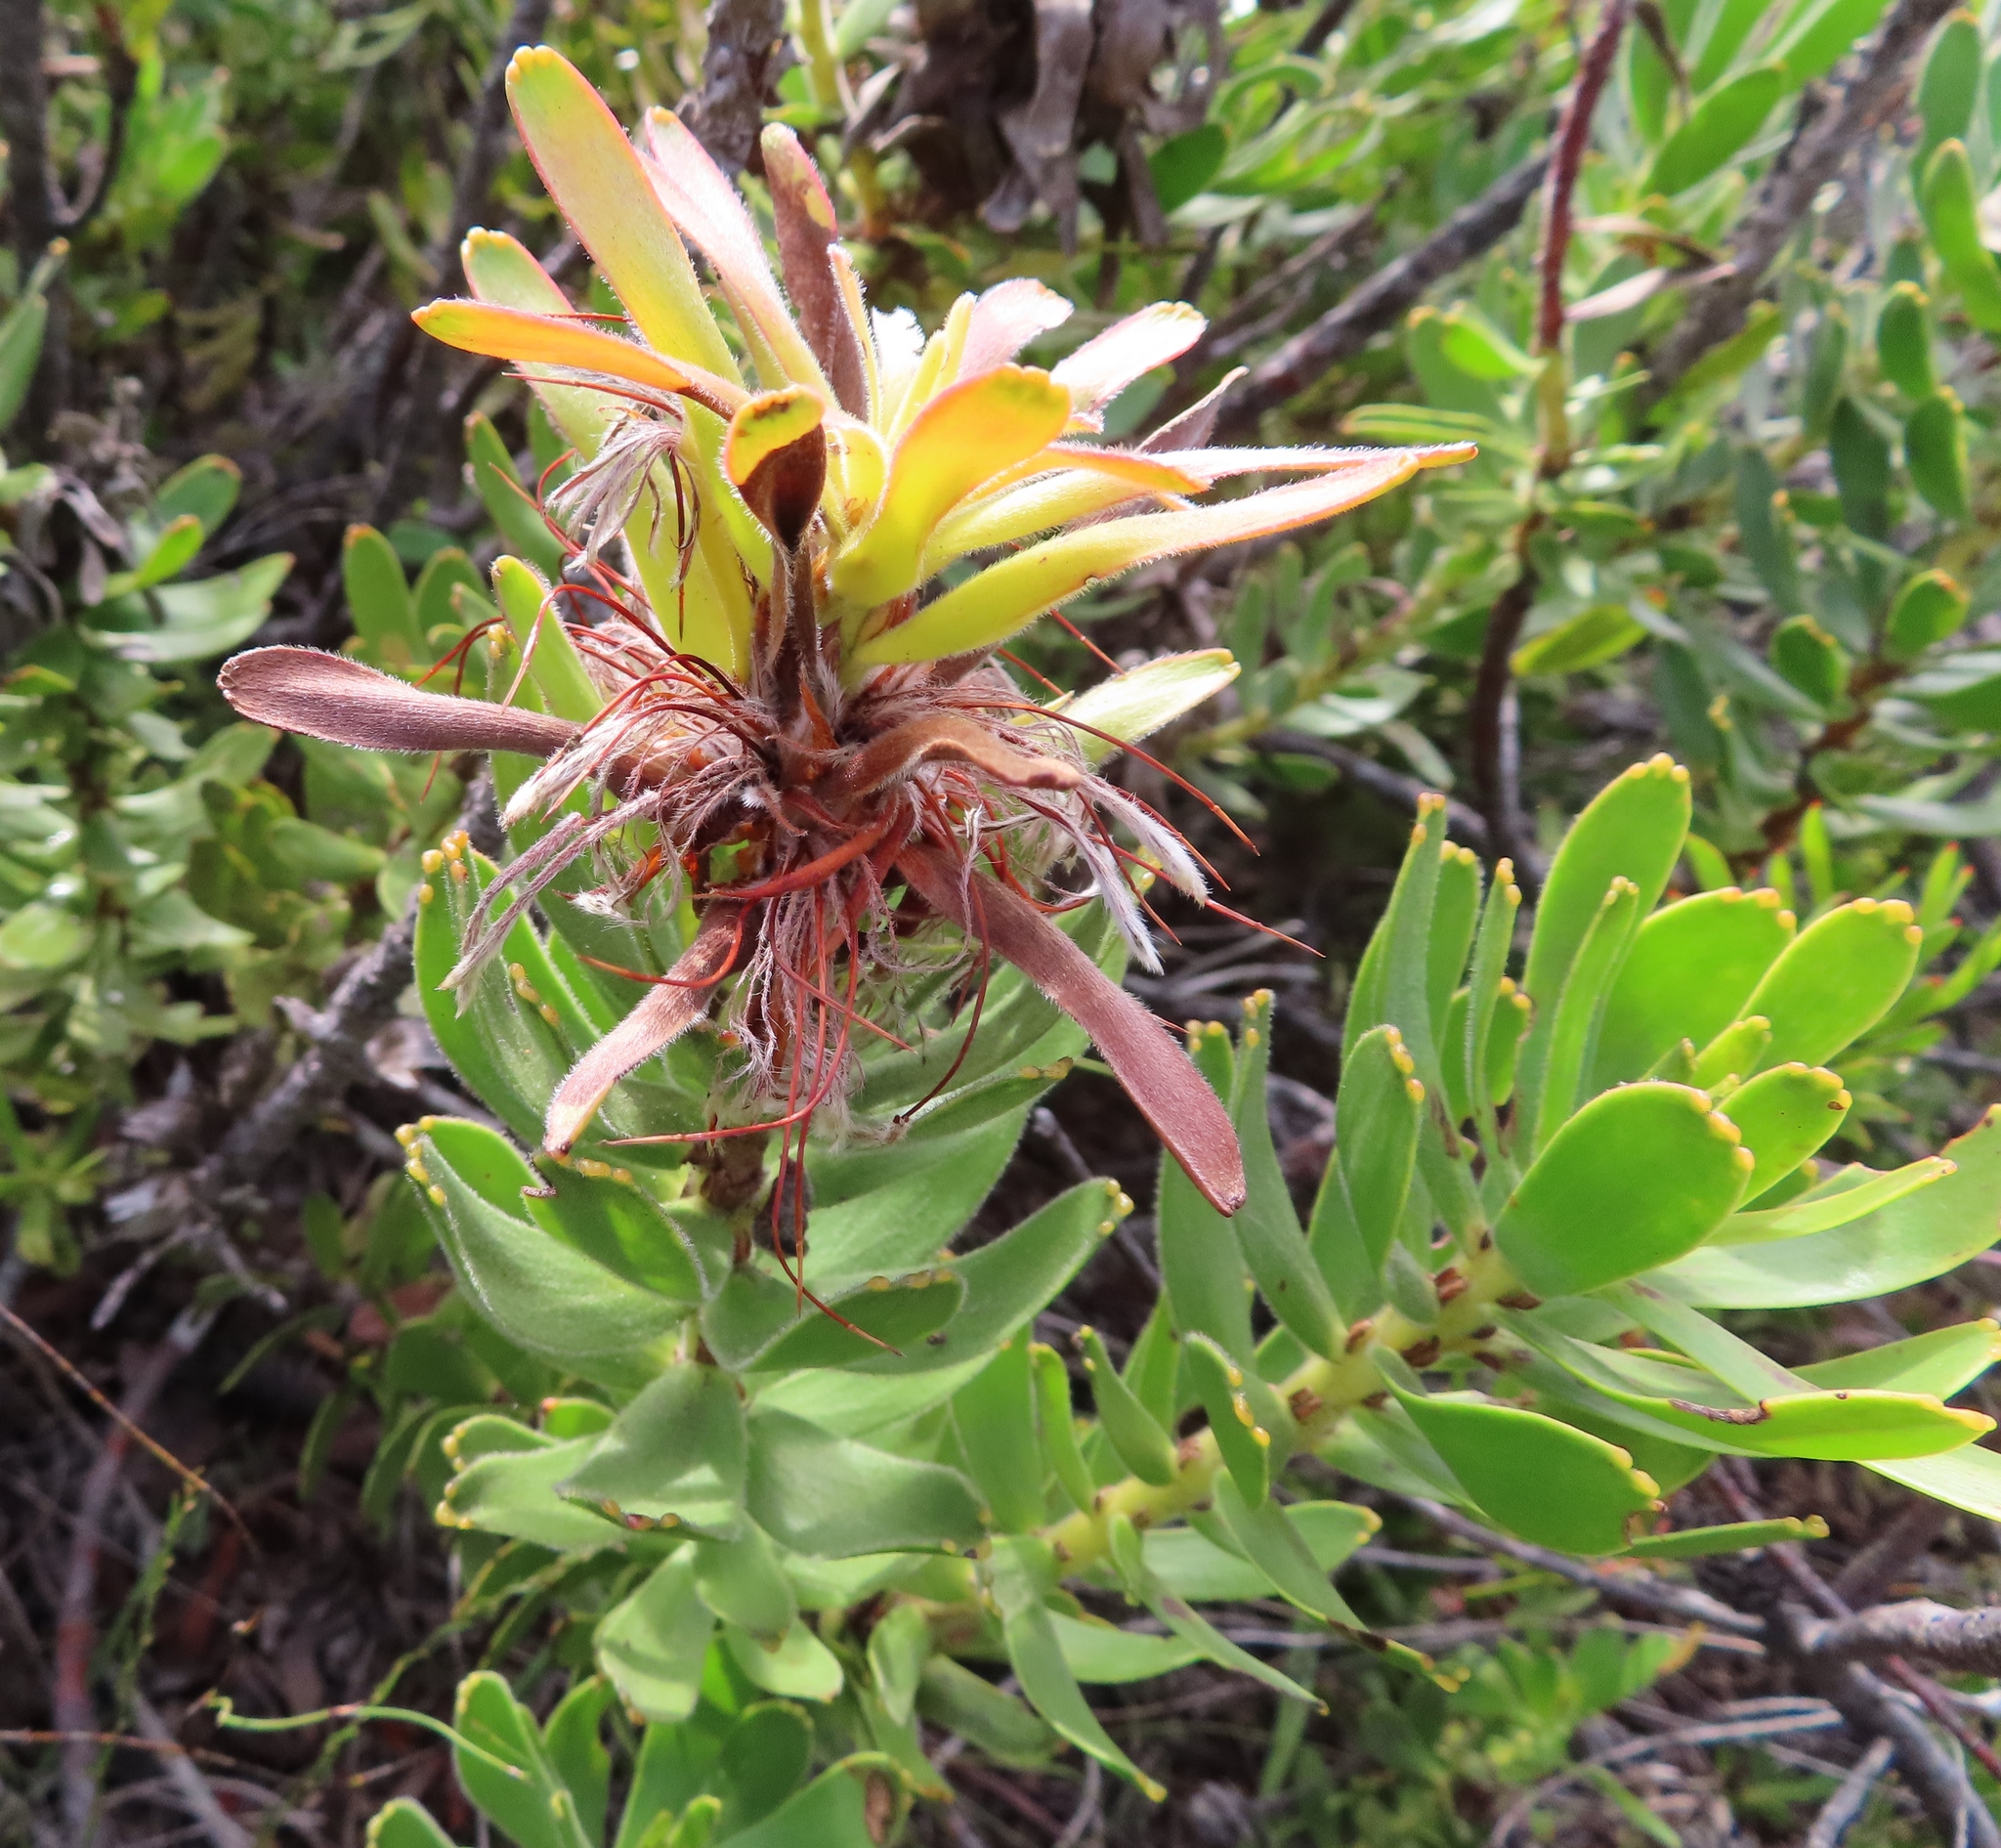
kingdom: Plantae
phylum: Tracheophyta
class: Magnoliopsida
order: Proteales
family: Proteaceae
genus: Mimetes
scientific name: Mimetes cucullatus
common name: Common pagoda
